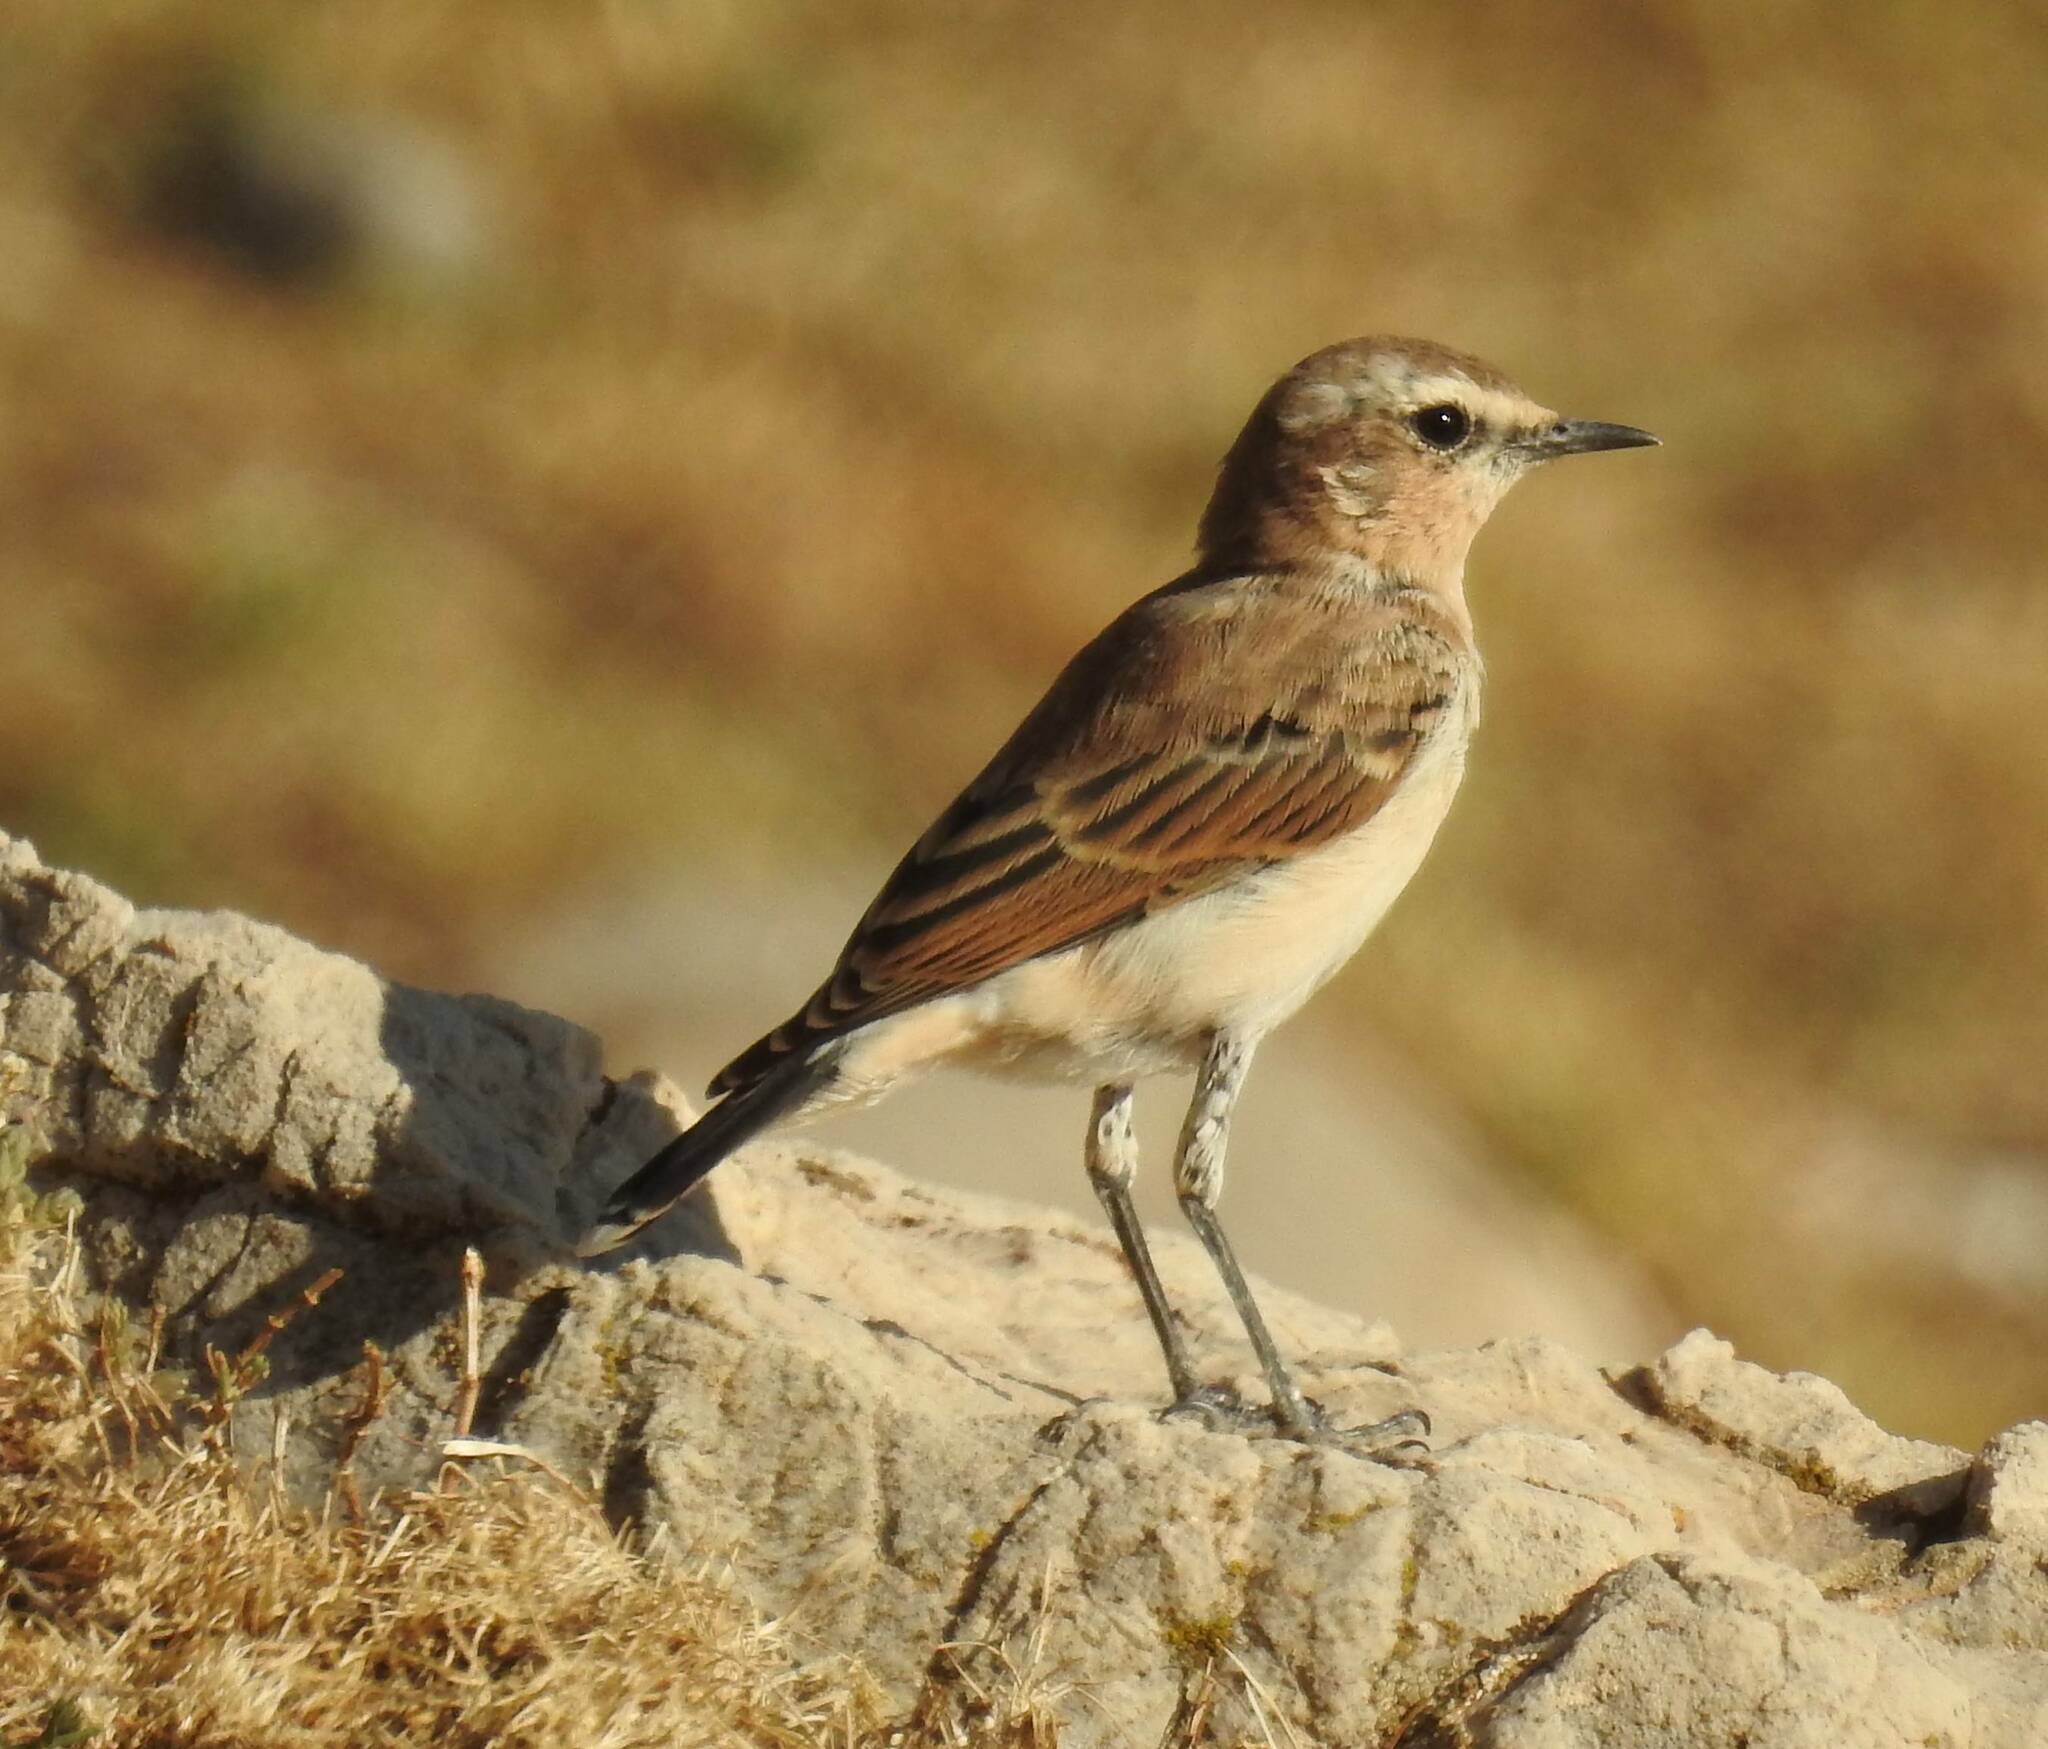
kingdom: Animalia
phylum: Chordata
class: Aves
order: Passeriformes
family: Muscicapidae
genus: Oenanthe
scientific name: Oenanthe oenanthe
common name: Northern wheatear
